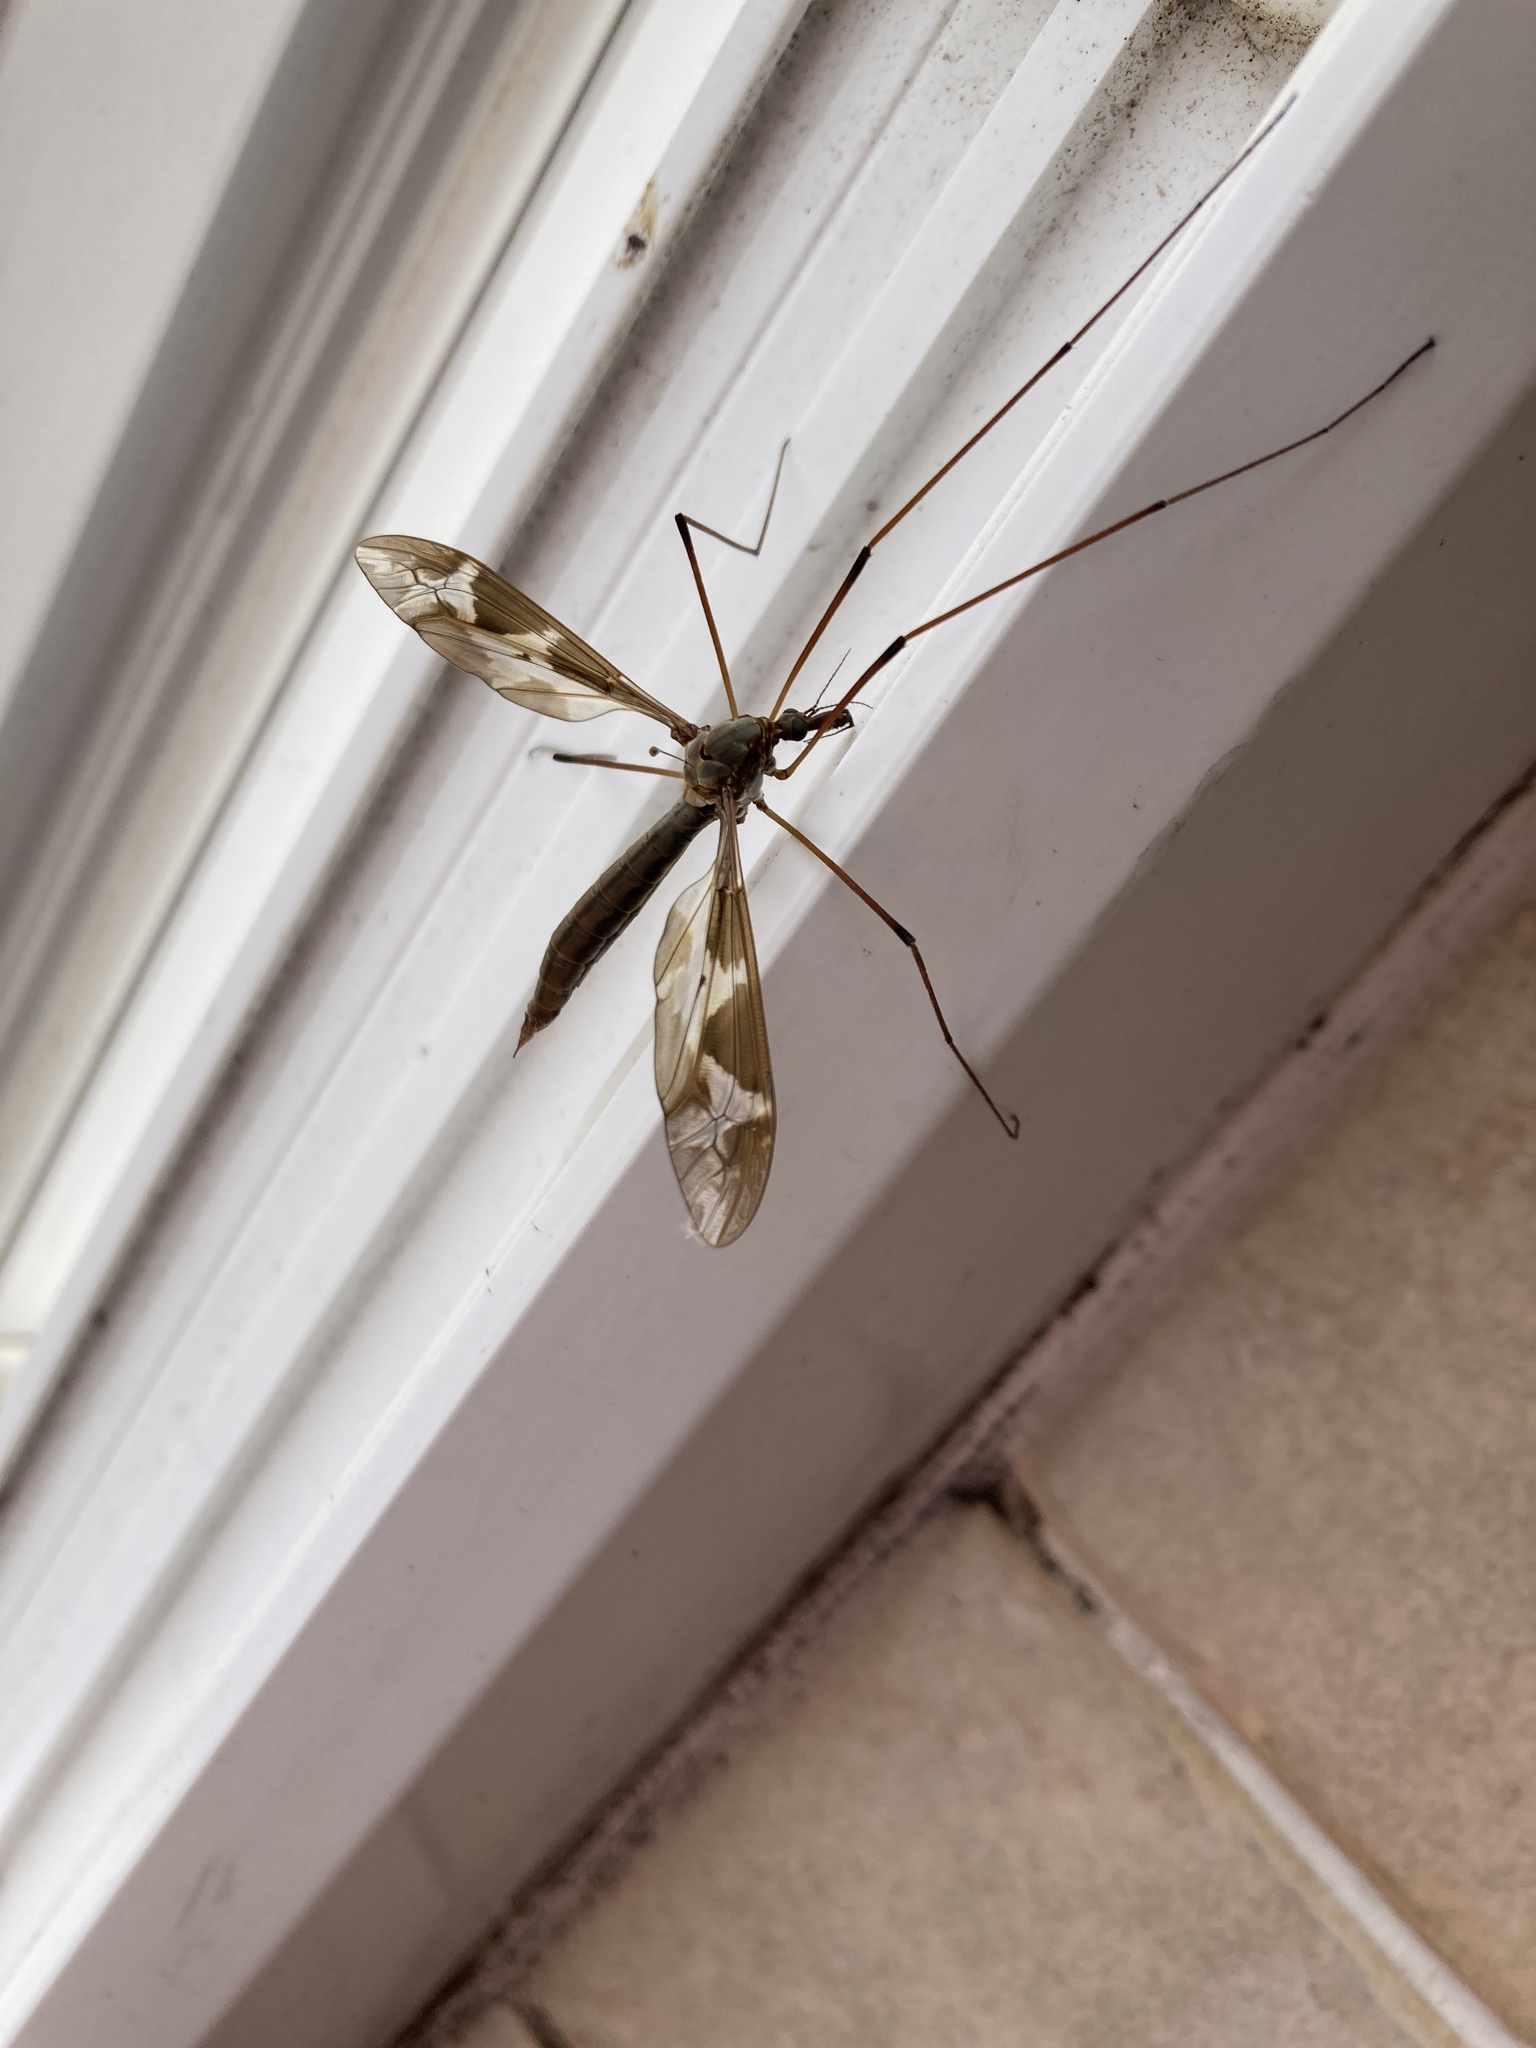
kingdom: Animalia
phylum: Arthropoda
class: Insecta
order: Diptera
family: Tipulidae
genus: Tipula
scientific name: Tipula maxima
